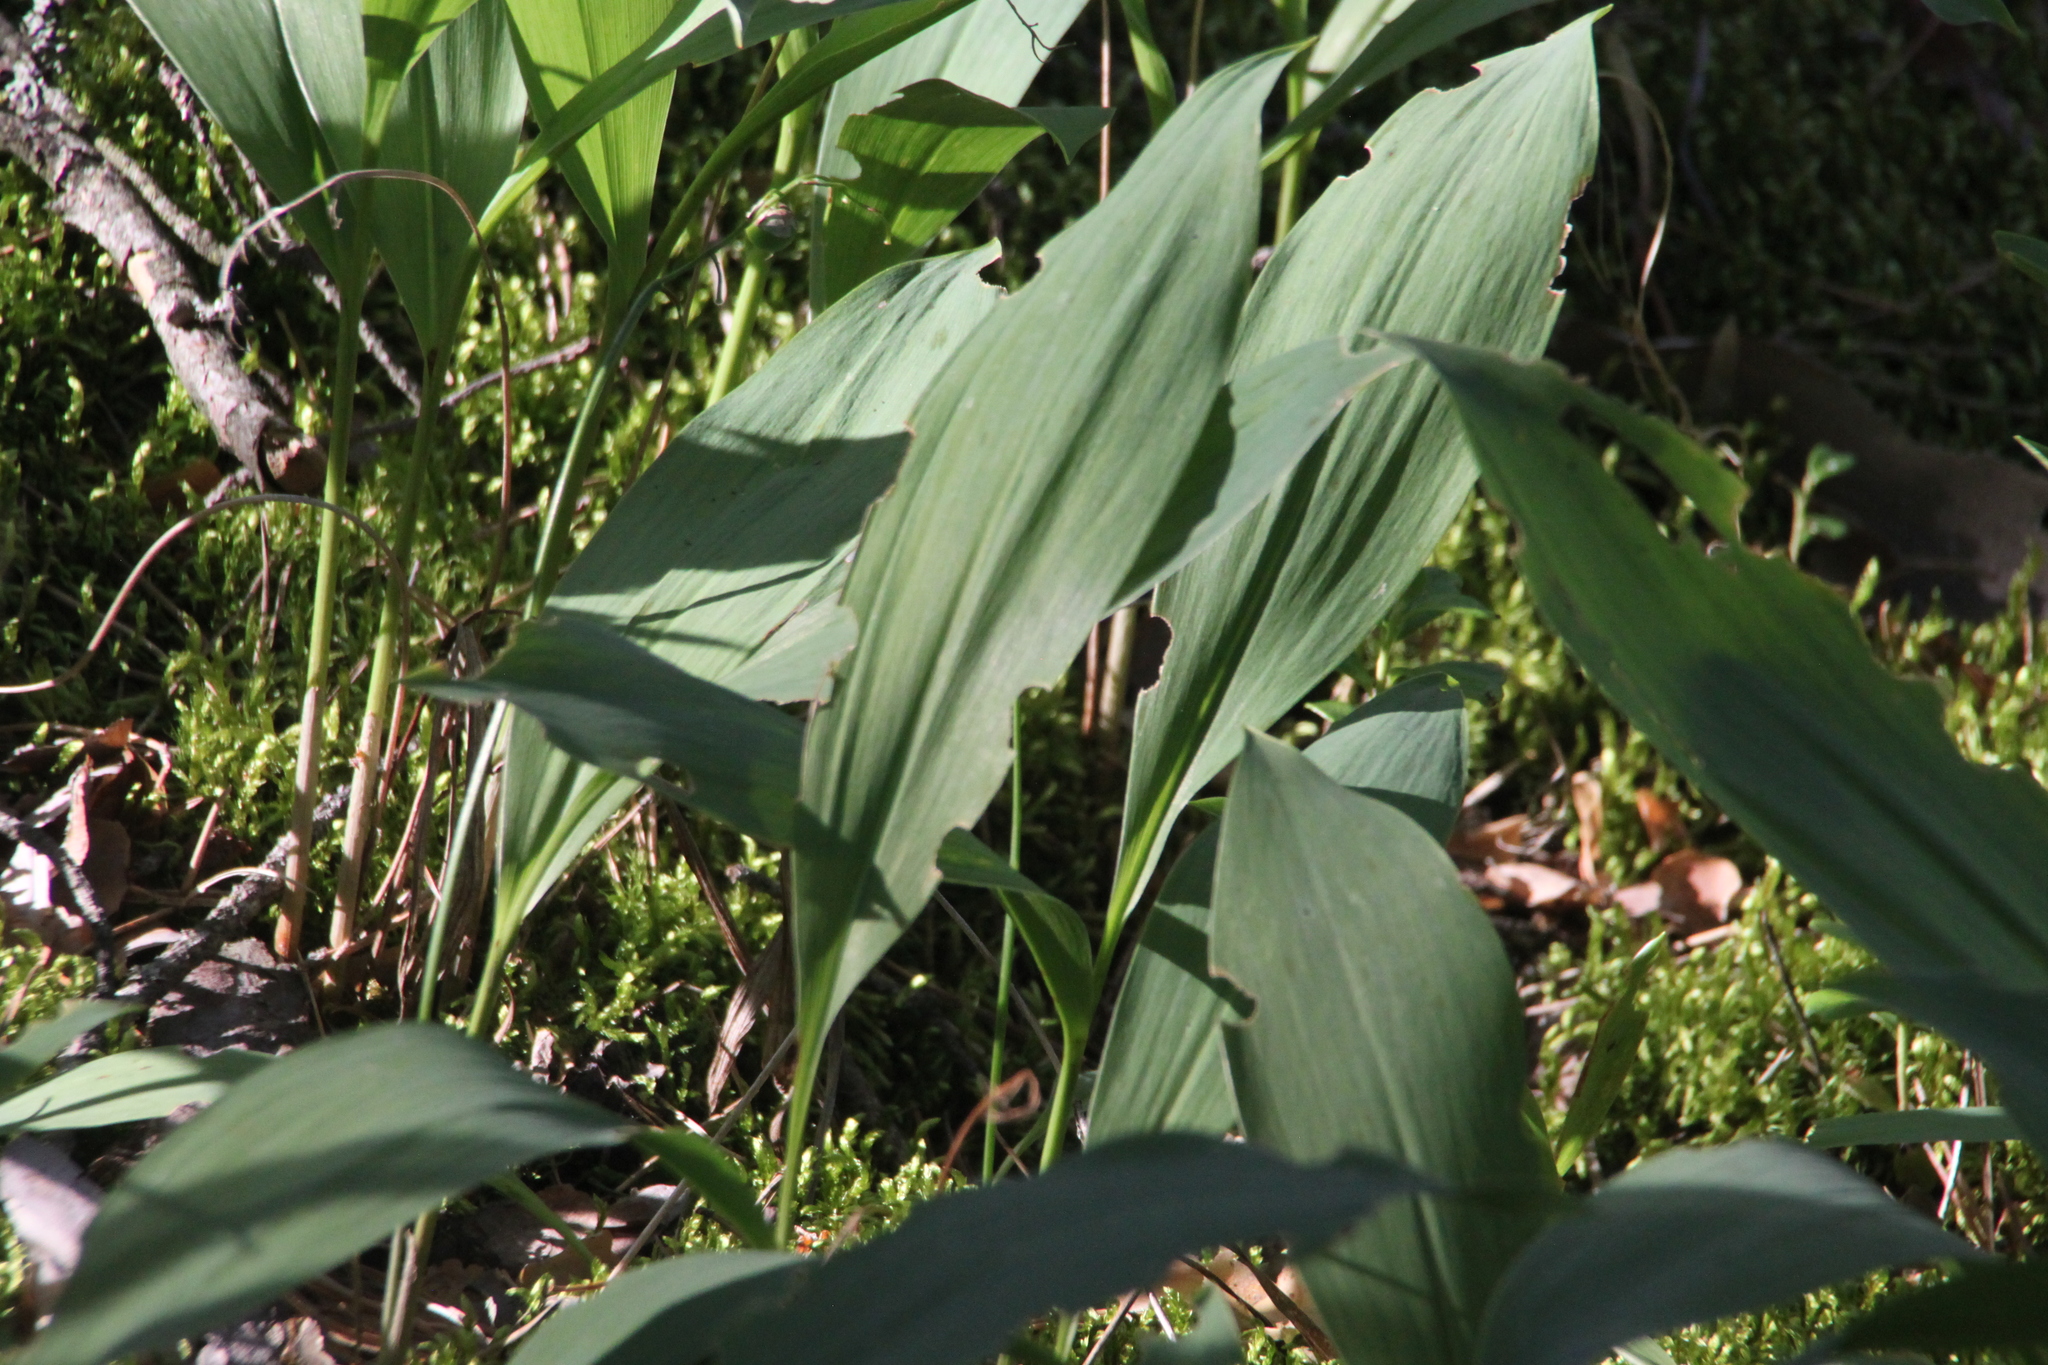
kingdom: Plantae
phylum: Tracheophyta
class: Liliopsida
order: Asparagales
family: Asparagaceae
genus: Convallaria
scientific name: Convallaria majalis
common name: Lily-of-the-valley
